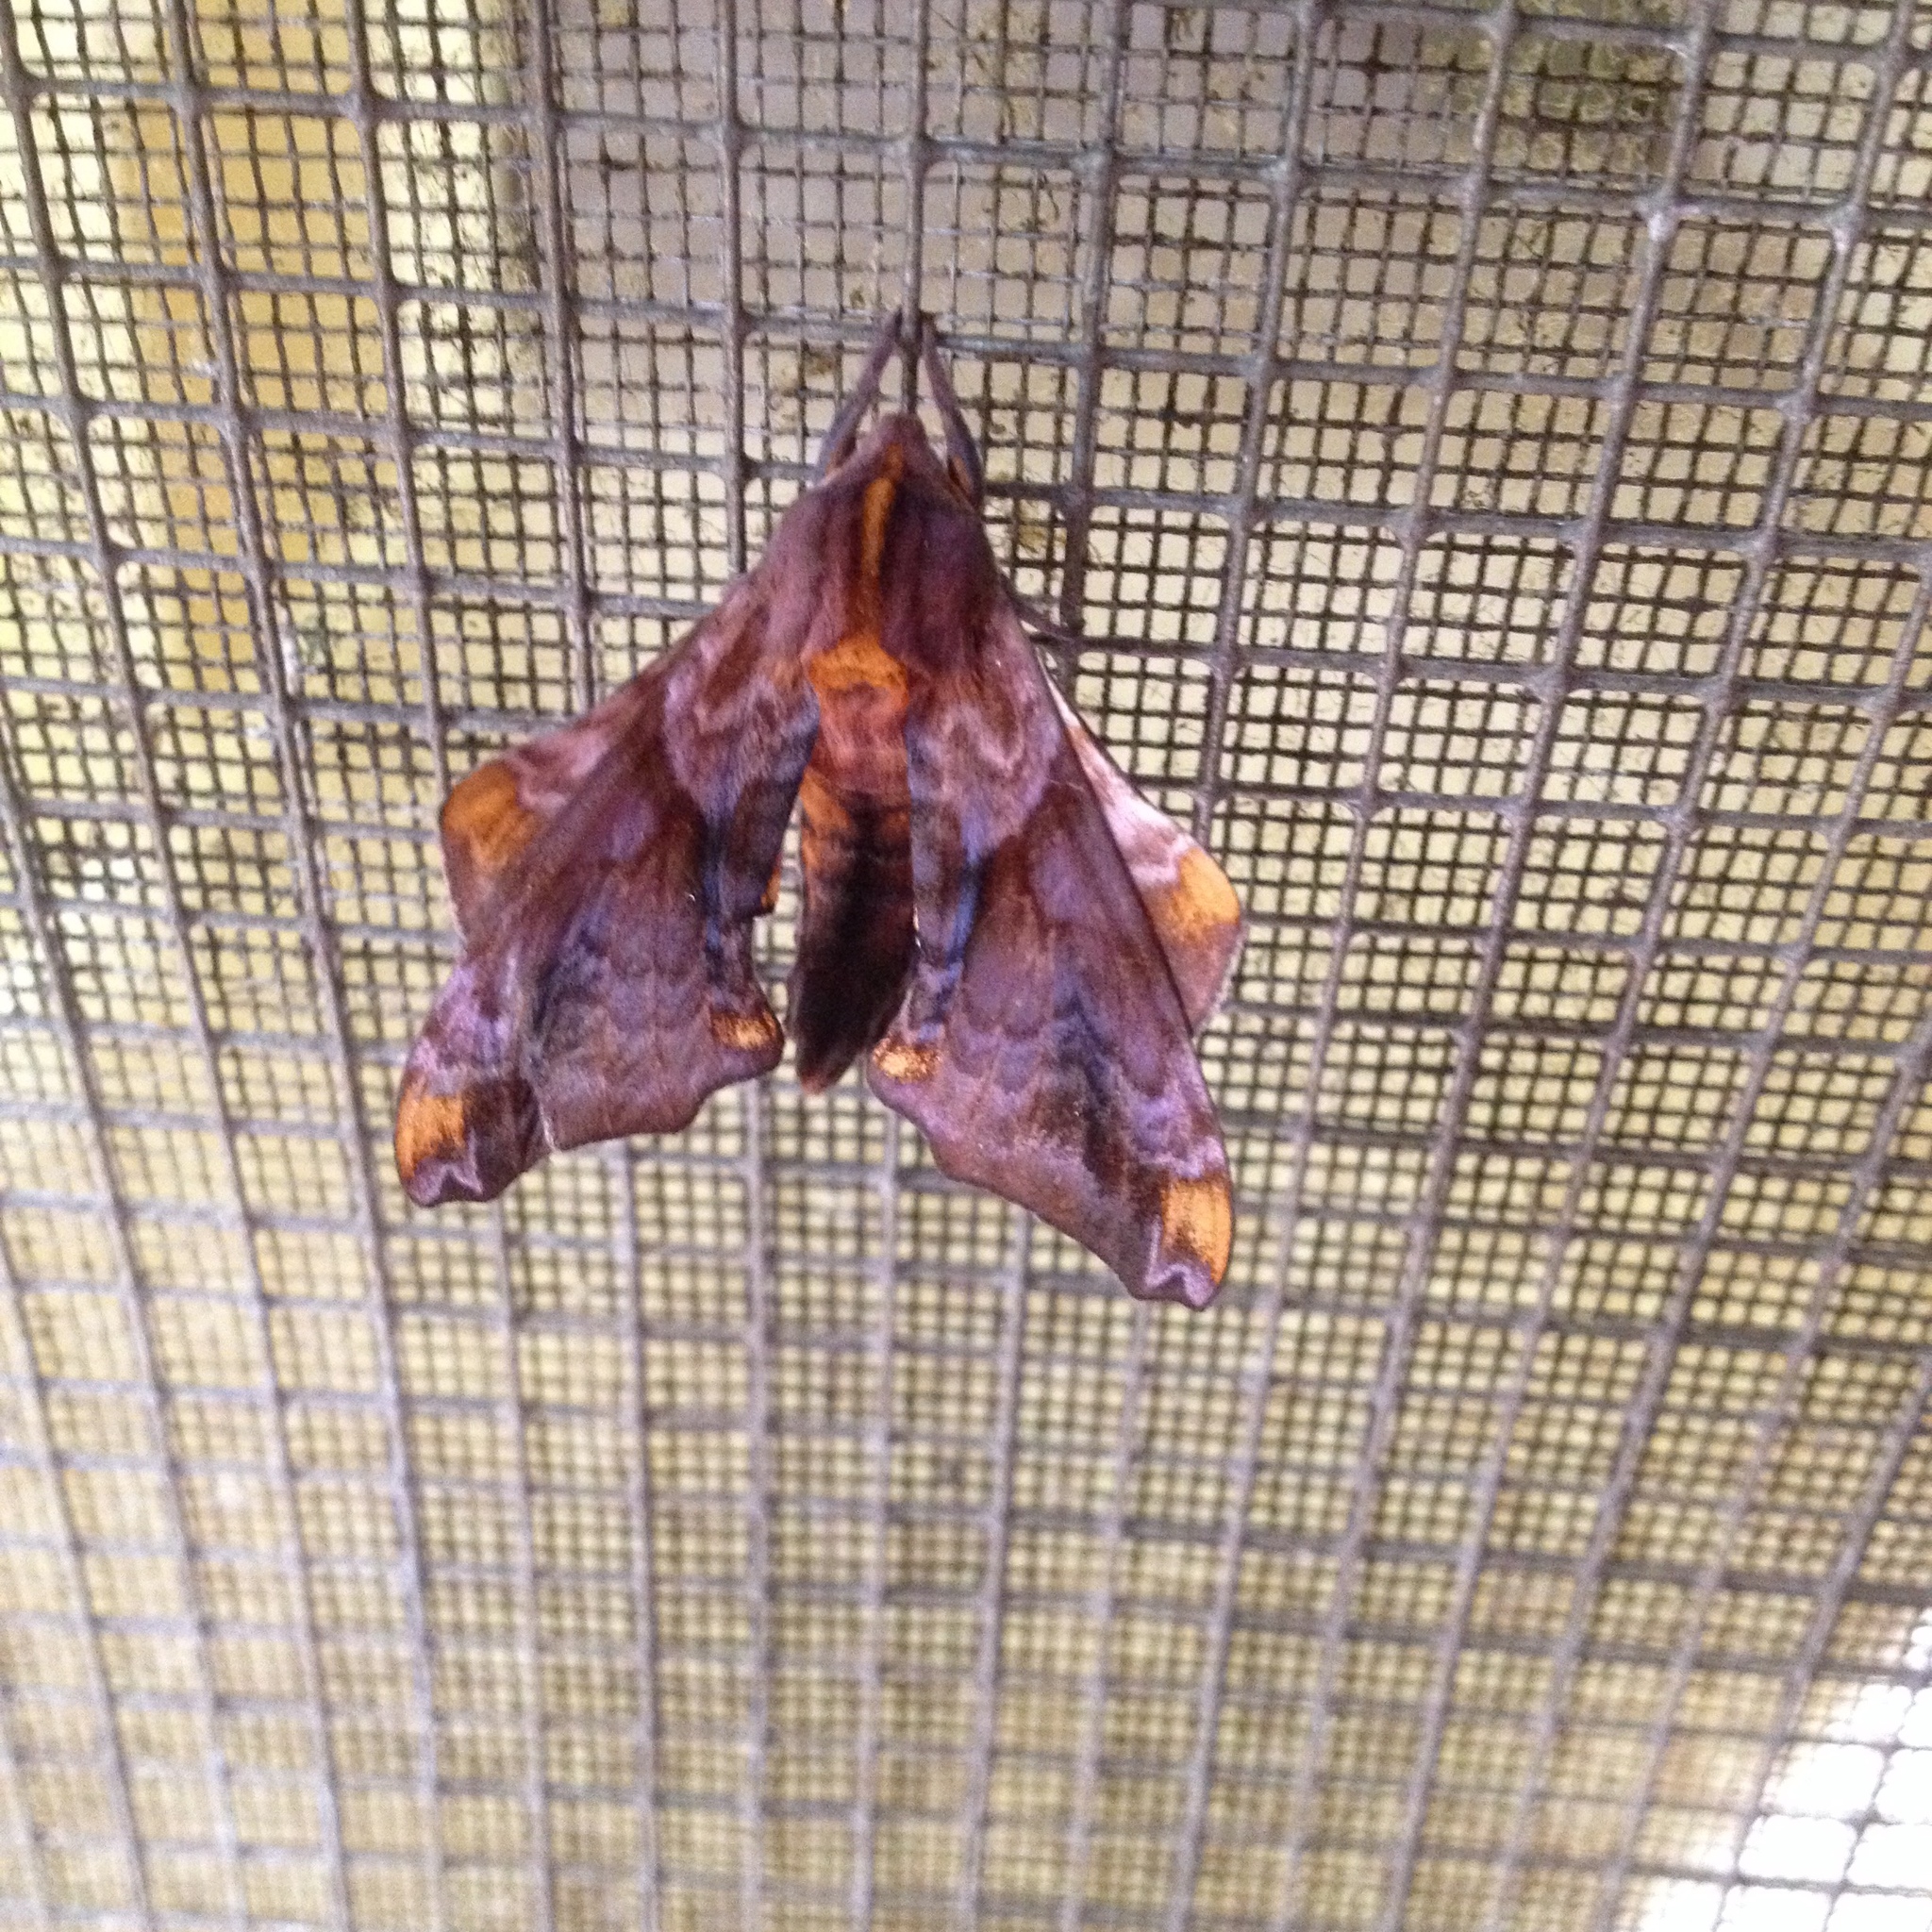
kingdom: Animalia
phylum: Arthropoda
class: Insecta
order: Lepidoptera
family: Sphingidae
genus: Paonias
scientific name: Paonias myops
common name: Small-eyed sphinx
